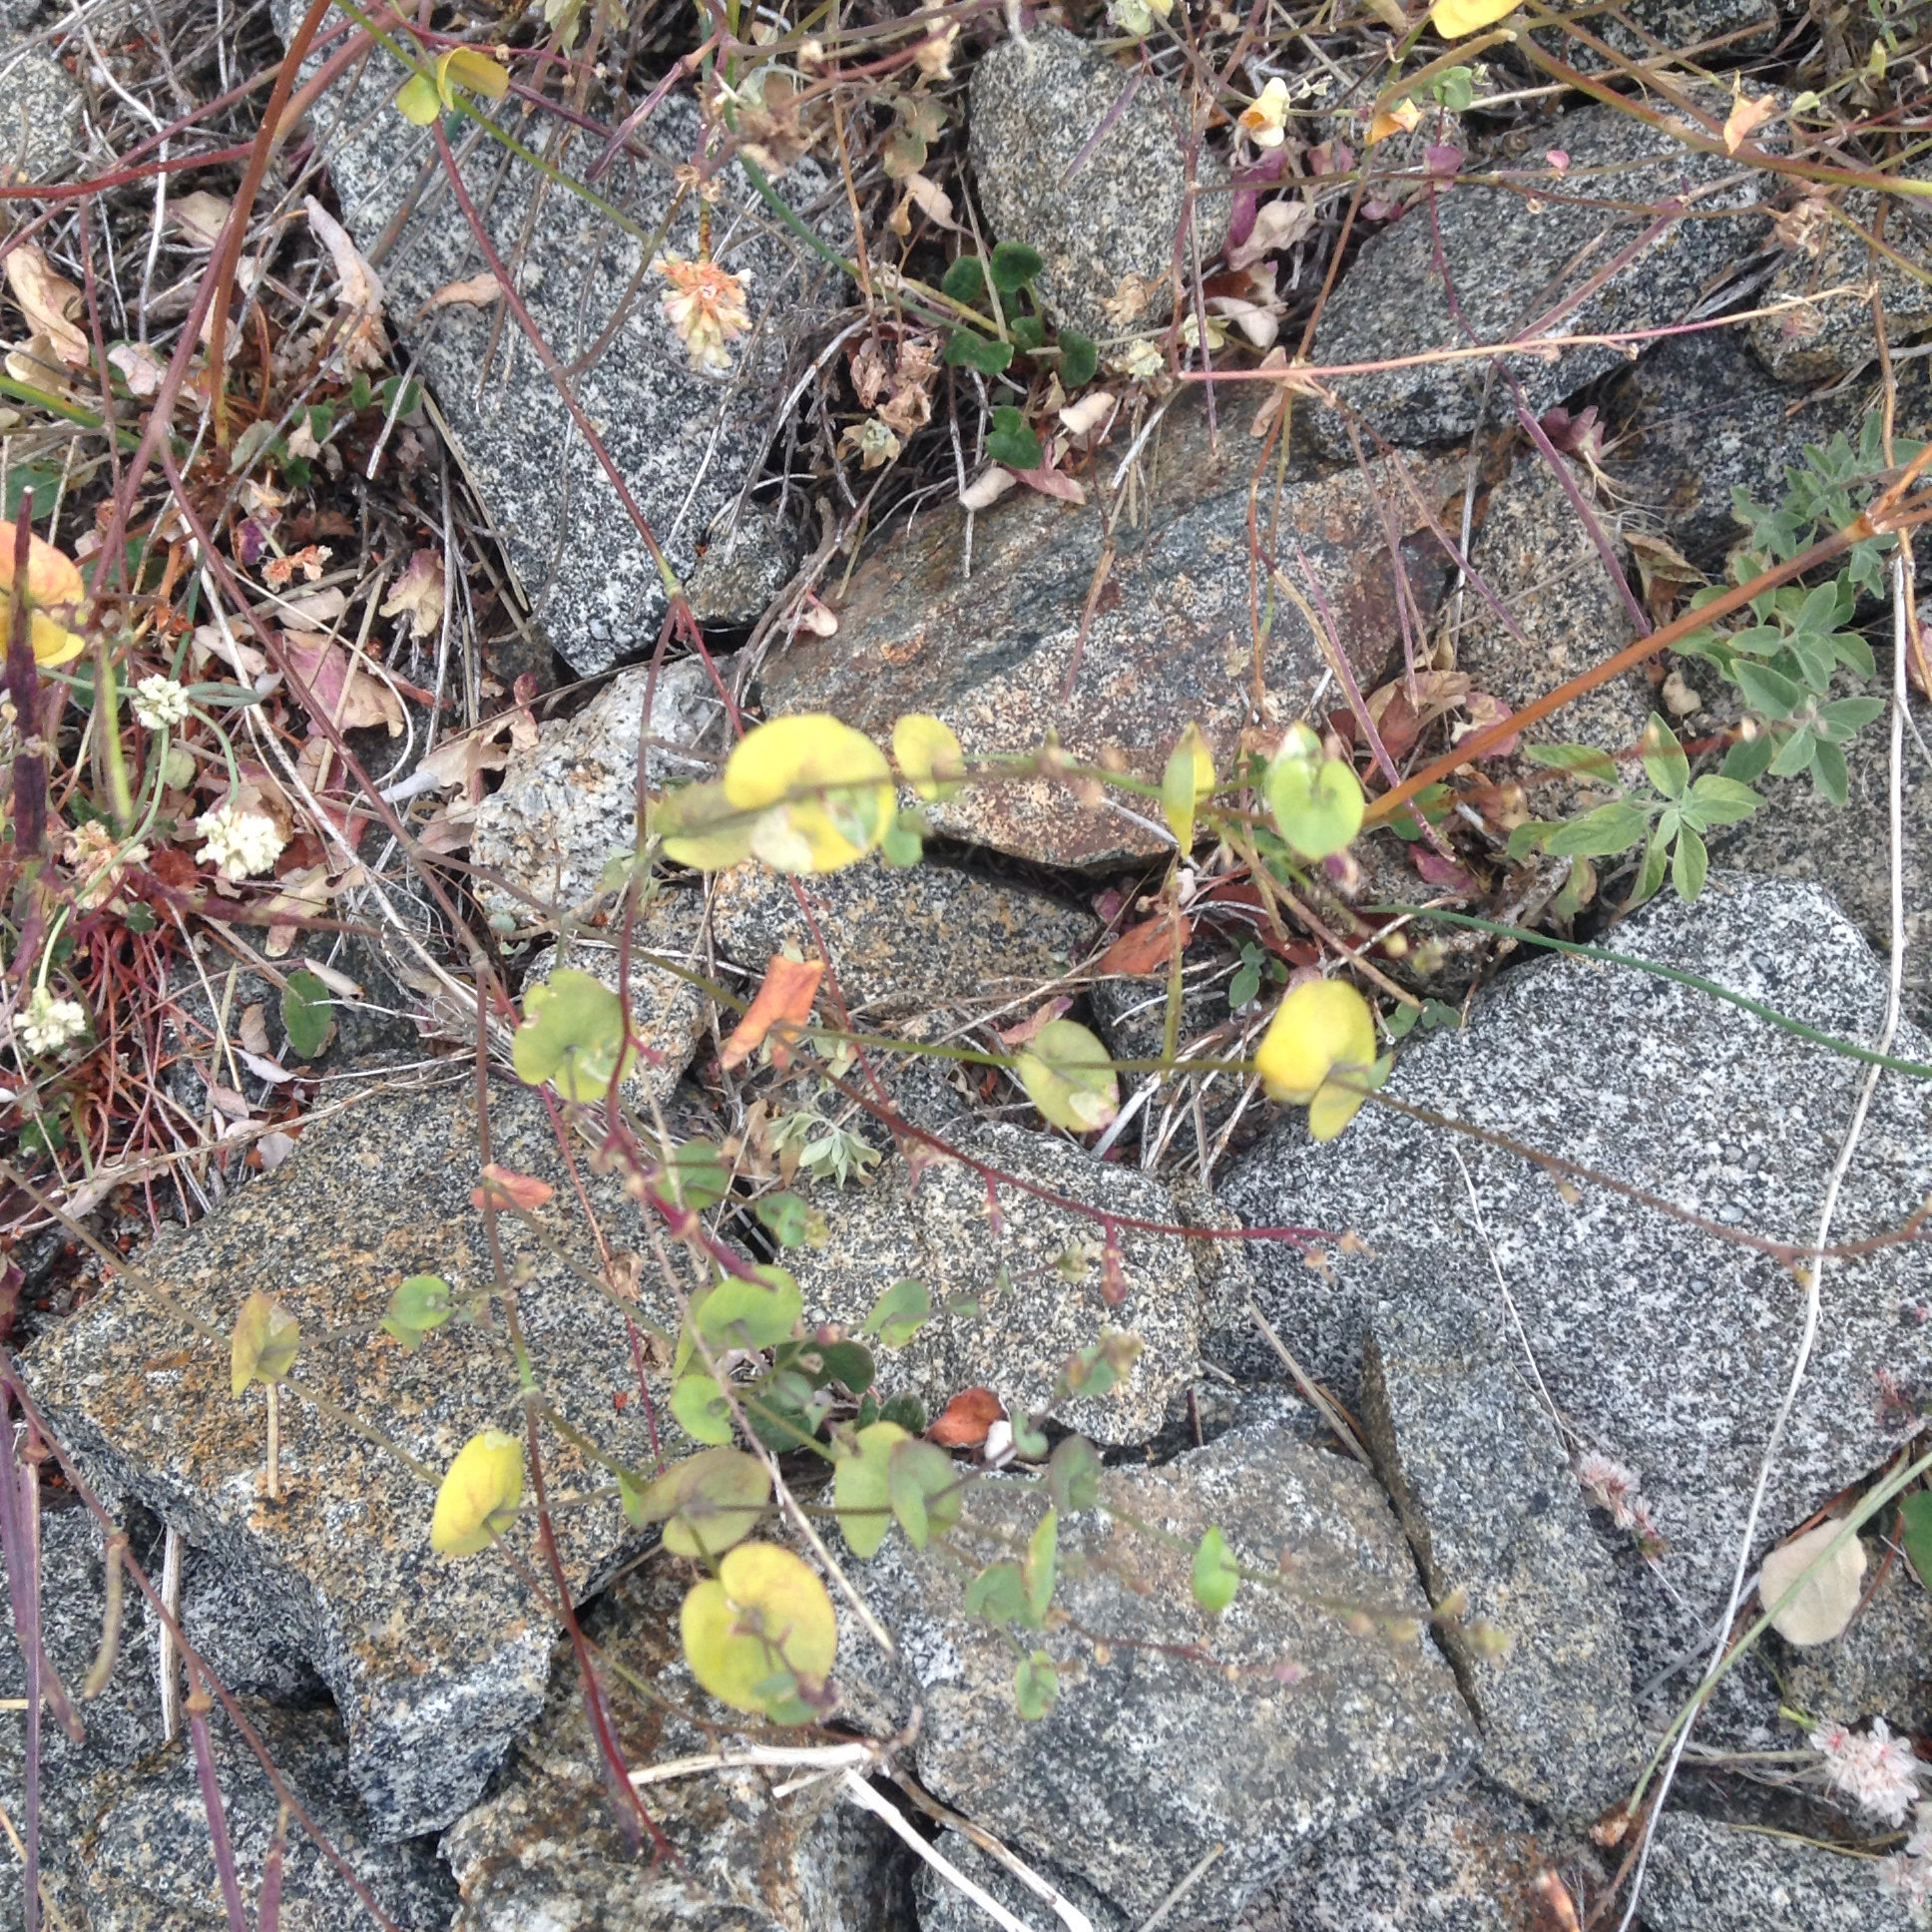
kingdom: Plantae
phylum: Tracheophyta
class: Magnoliopsida
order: Brassicales
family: Brassicaceae
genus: Streptanthus
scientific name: Streptanthus tortuosus
